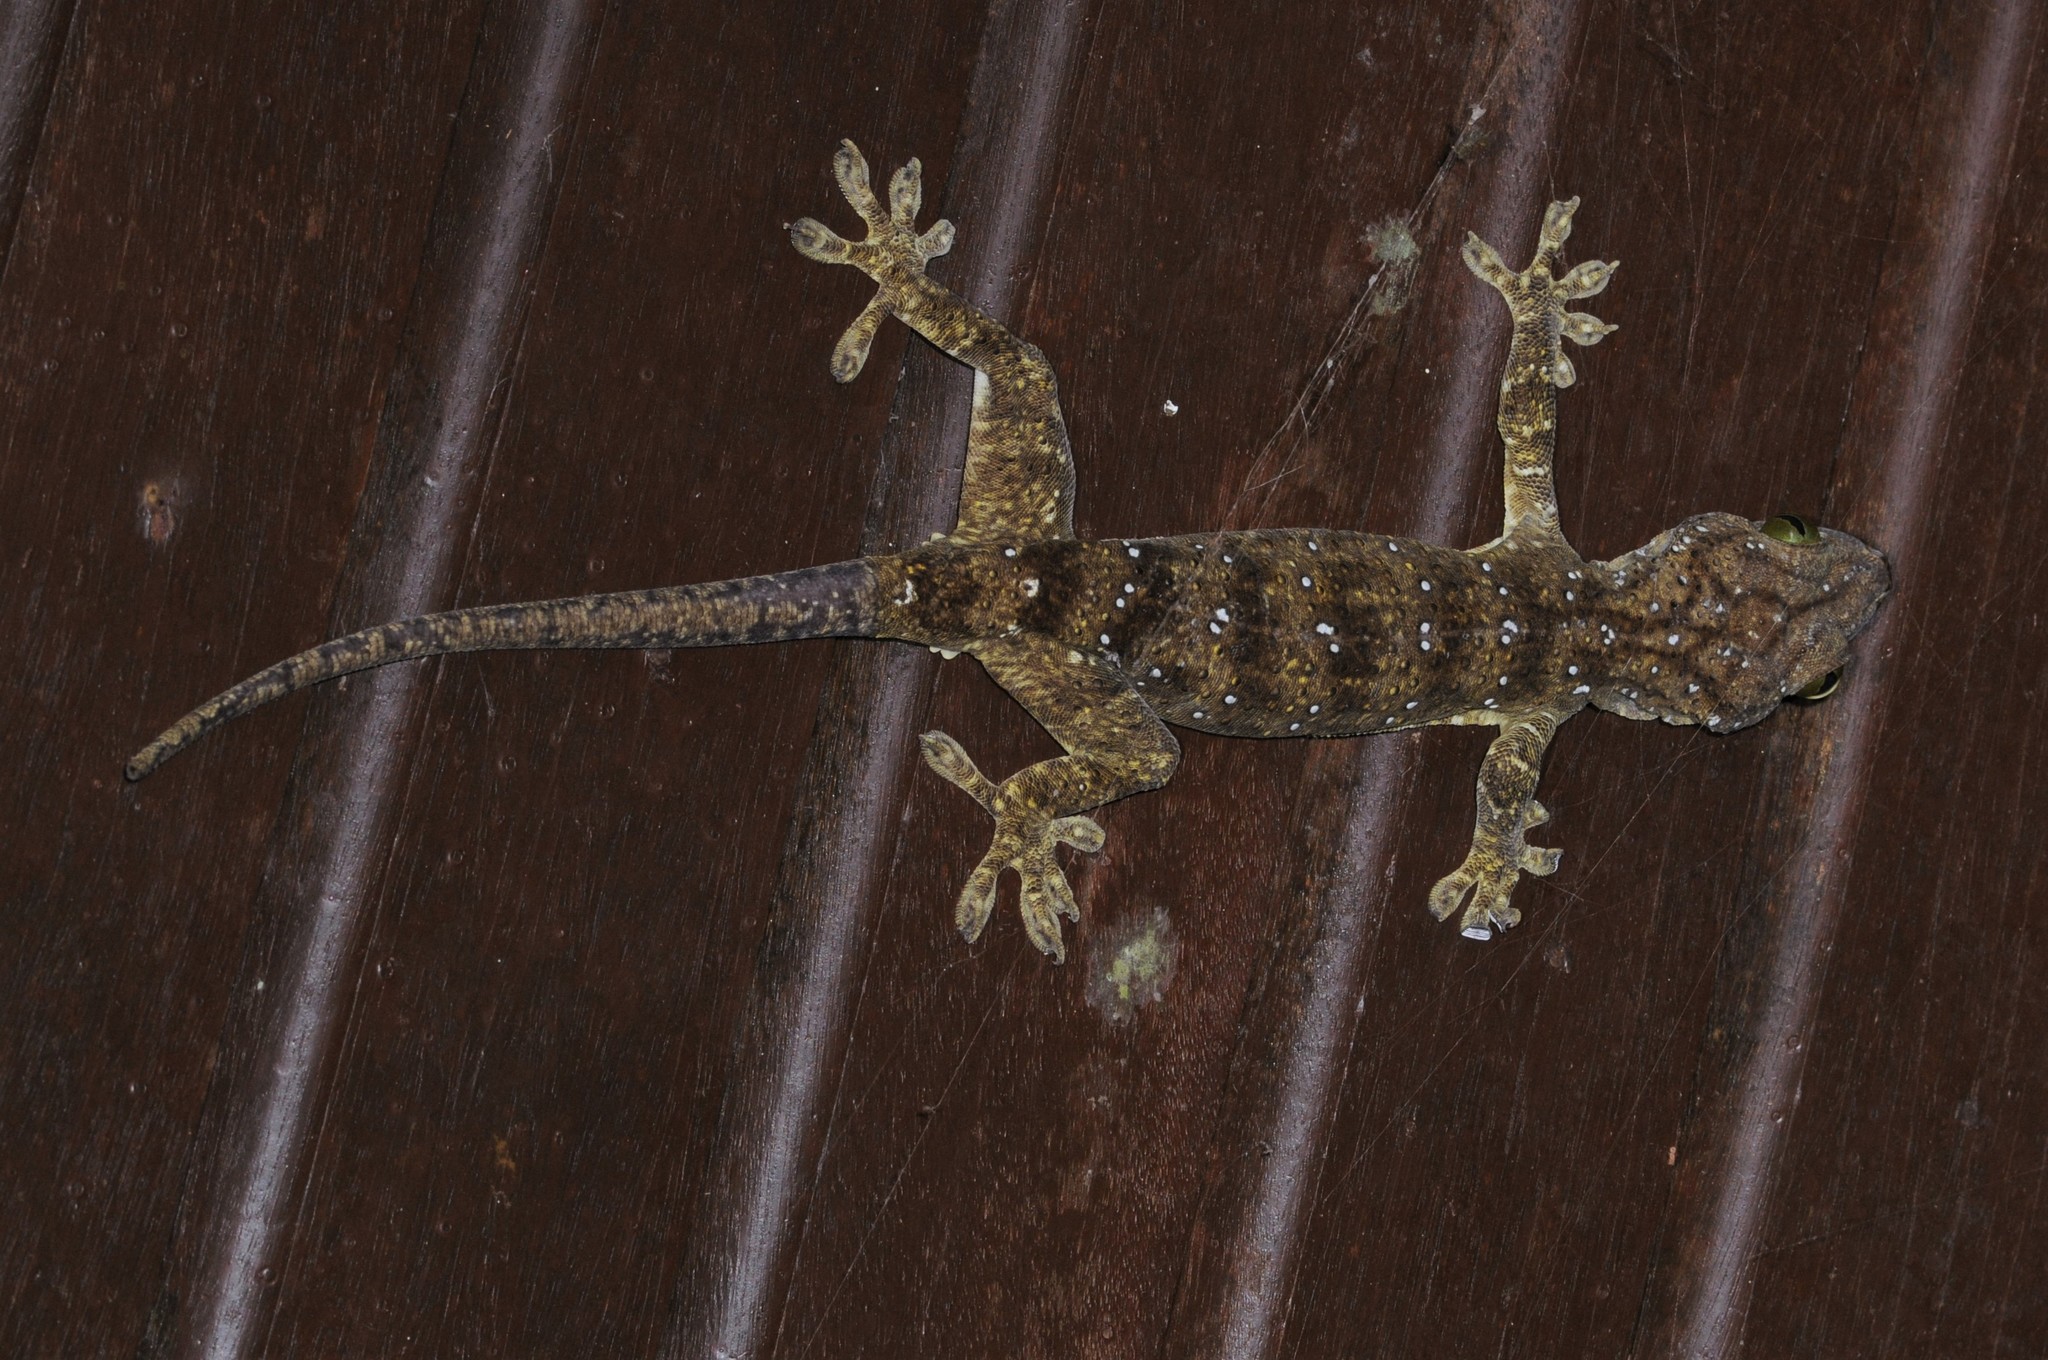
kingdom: Animalia
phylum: Chordata
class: Squamata
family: Gekkonidae
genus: Gekko
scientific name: Gekko albofasciolatus
